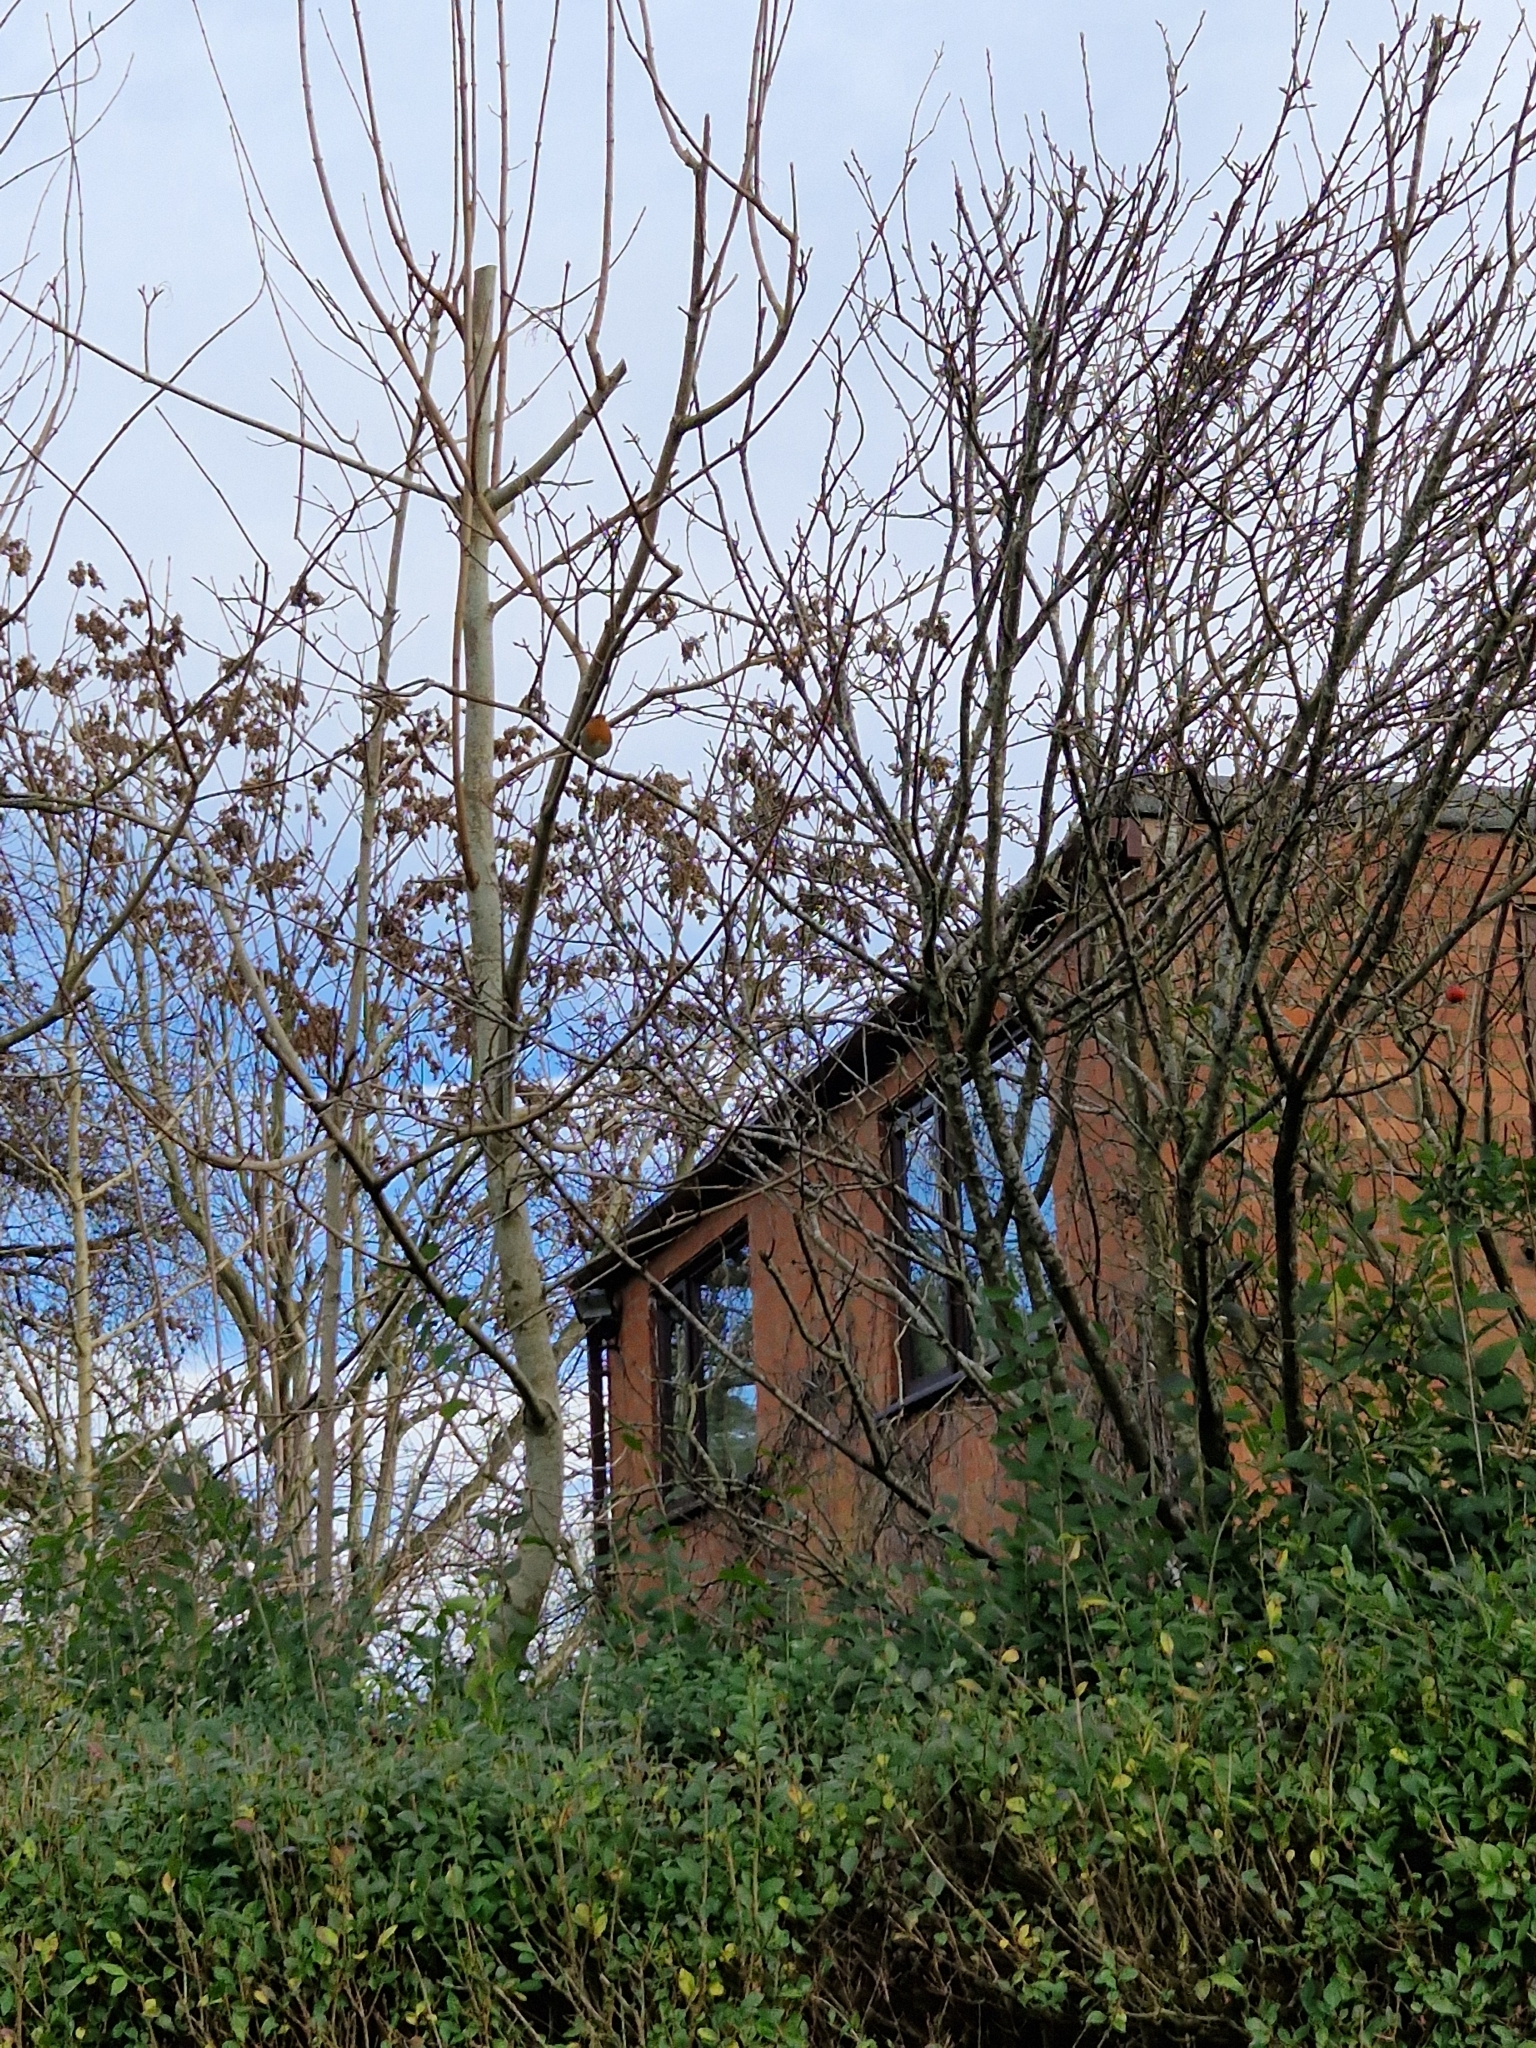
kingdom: Animalia
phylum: Chordata
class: Aves
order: Passeriformes
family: Muscicapidae
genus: Erithacus
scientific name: Erithacus rubecula
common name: European robin
